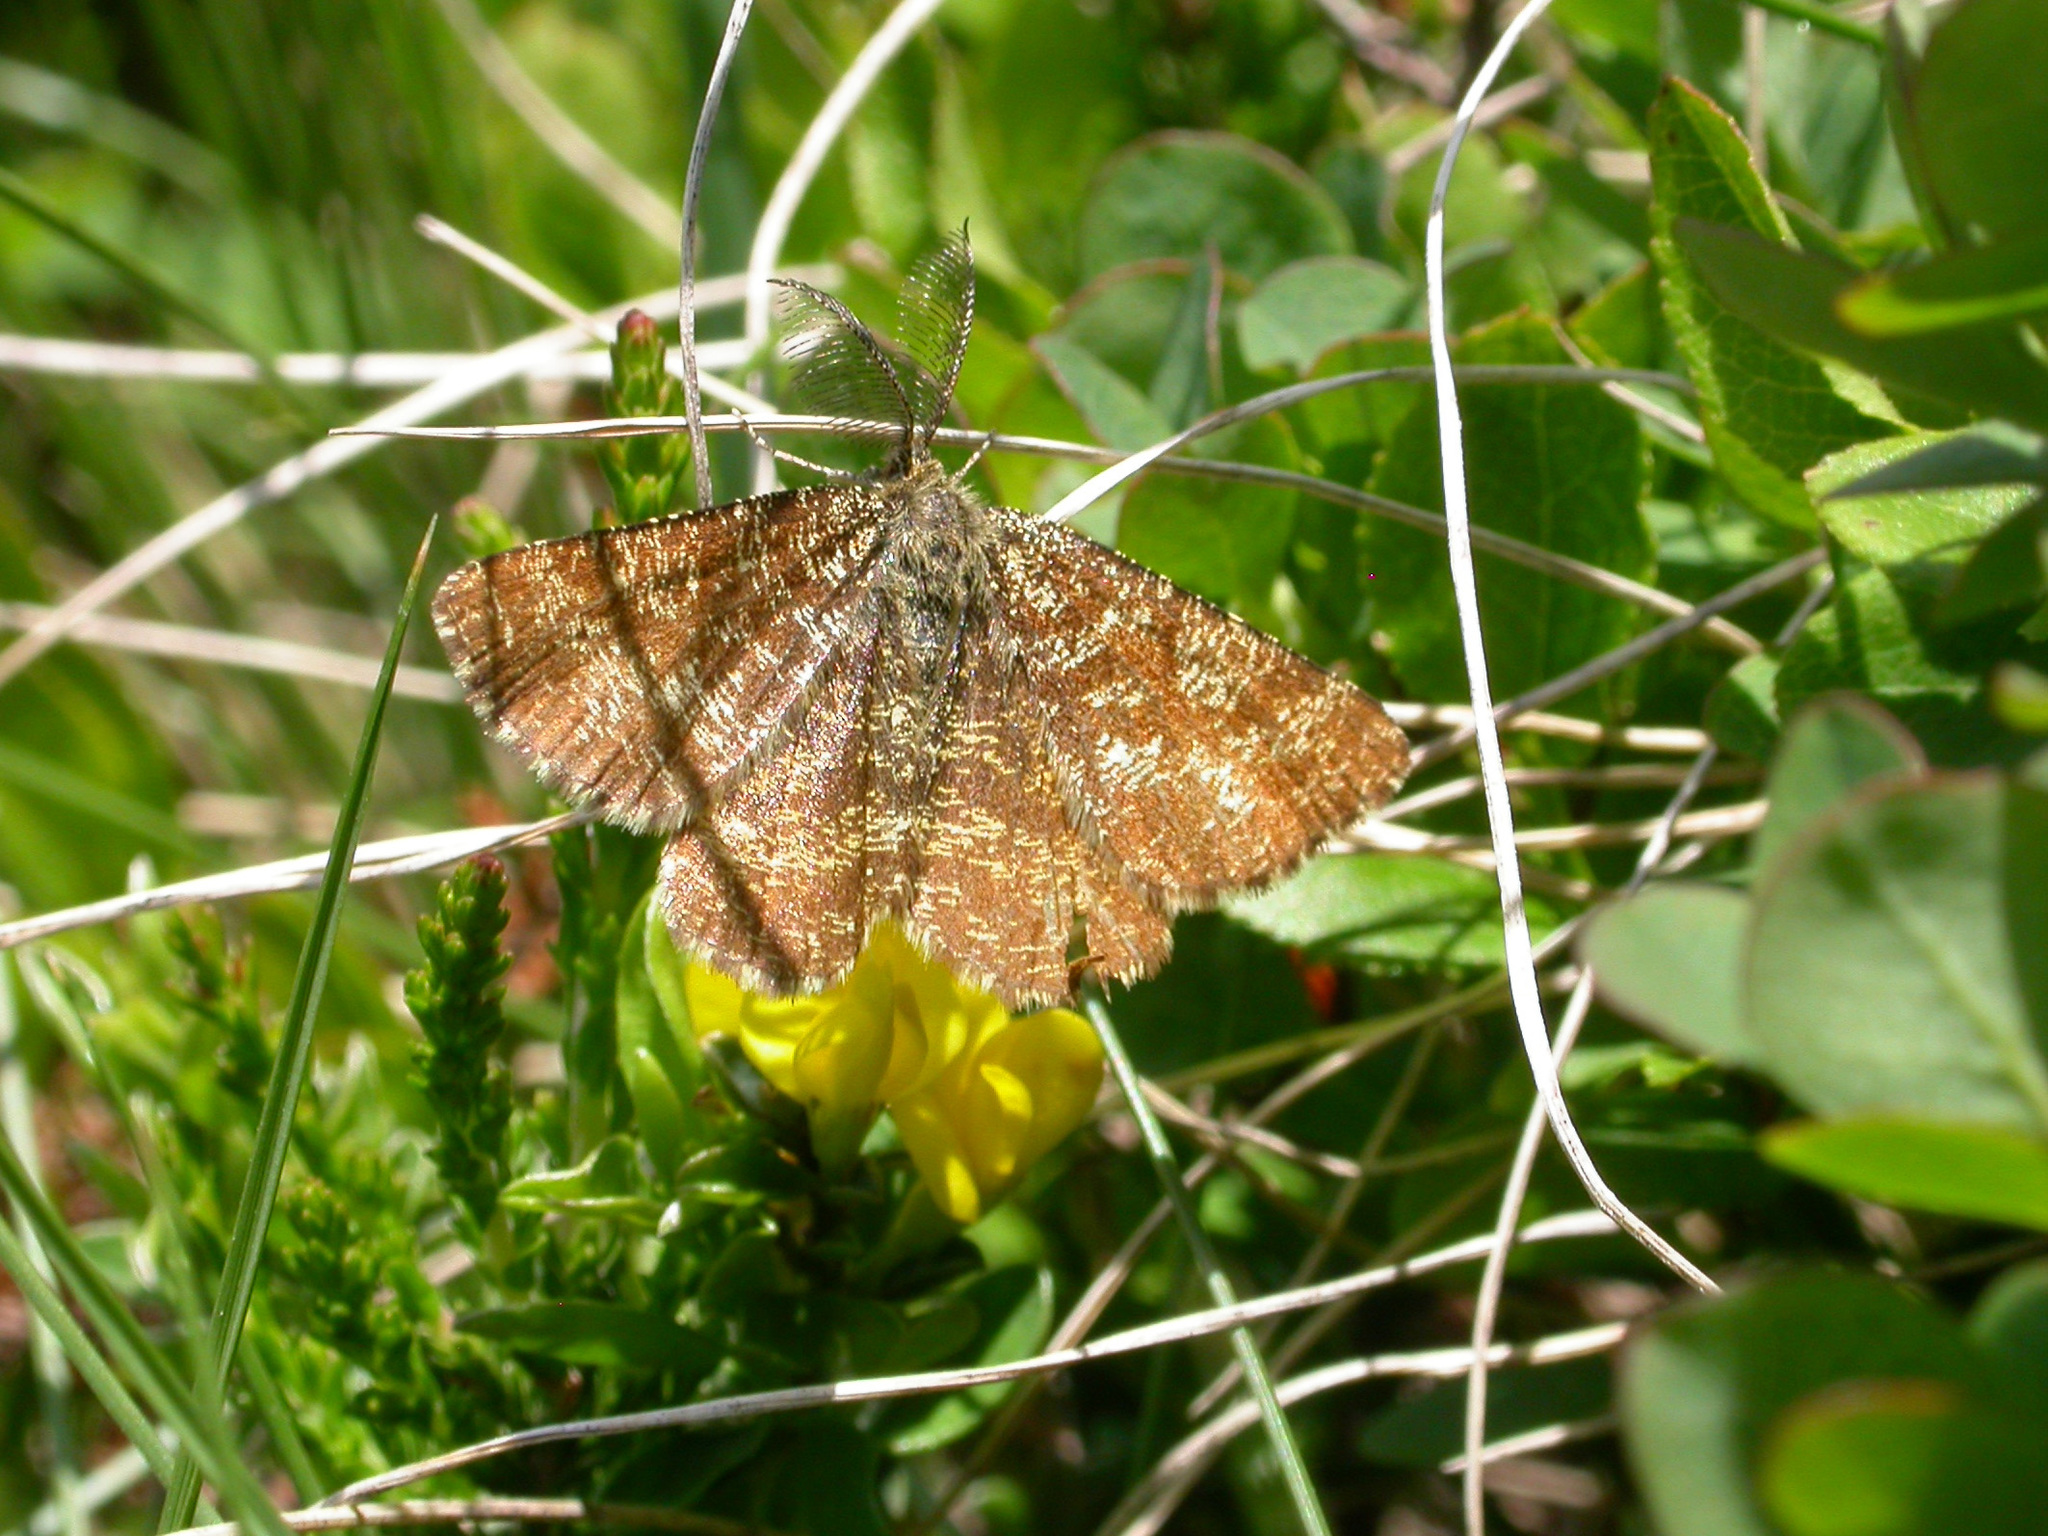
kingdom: Animalia
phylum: Arthropoda
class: Insecta
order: Lepidoptera
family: Geometridae
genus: Ematurga
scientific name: Ematurga atomaria
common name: Common heath
